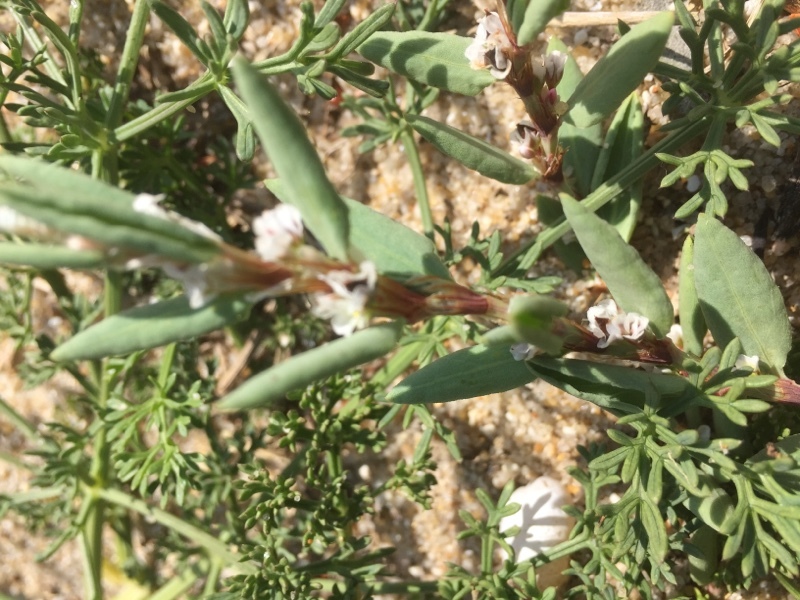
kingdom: Plantae
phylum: Tracheophyta
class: Magnoliopsida
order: Caryophyllales
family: Polygonaceae
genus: Polygonum
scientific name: Polygonum maritimum
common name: Sea knotgrass
